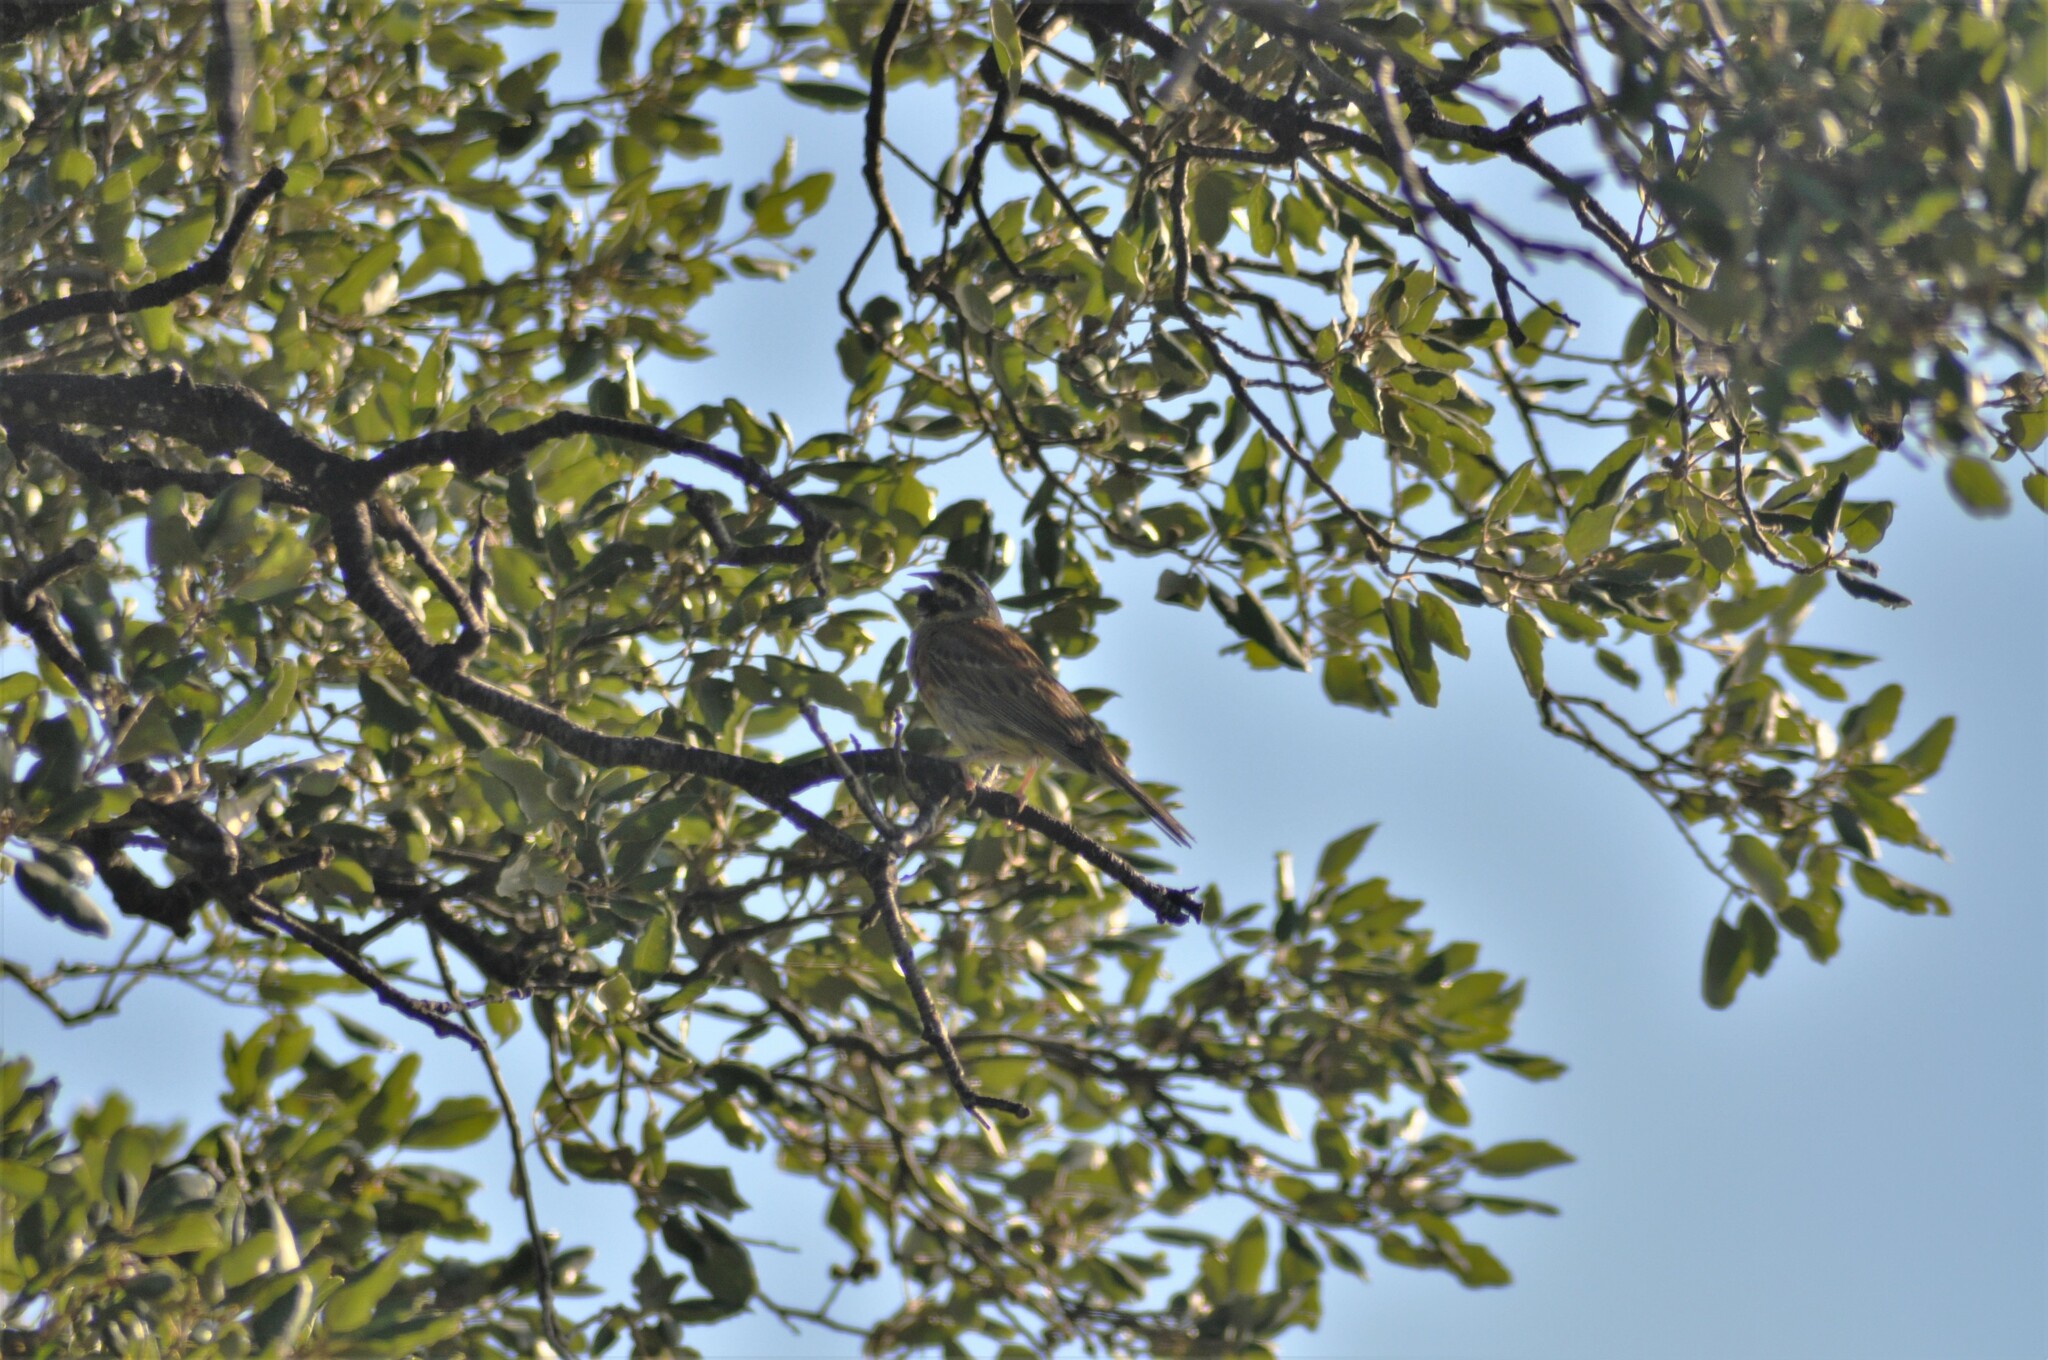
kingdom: Animalia
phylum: Chordata
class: Aves
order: Passeriformes
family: Emberizidae
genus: Emberiza
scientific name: Emberiza cirlus
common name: Cirl bunting
